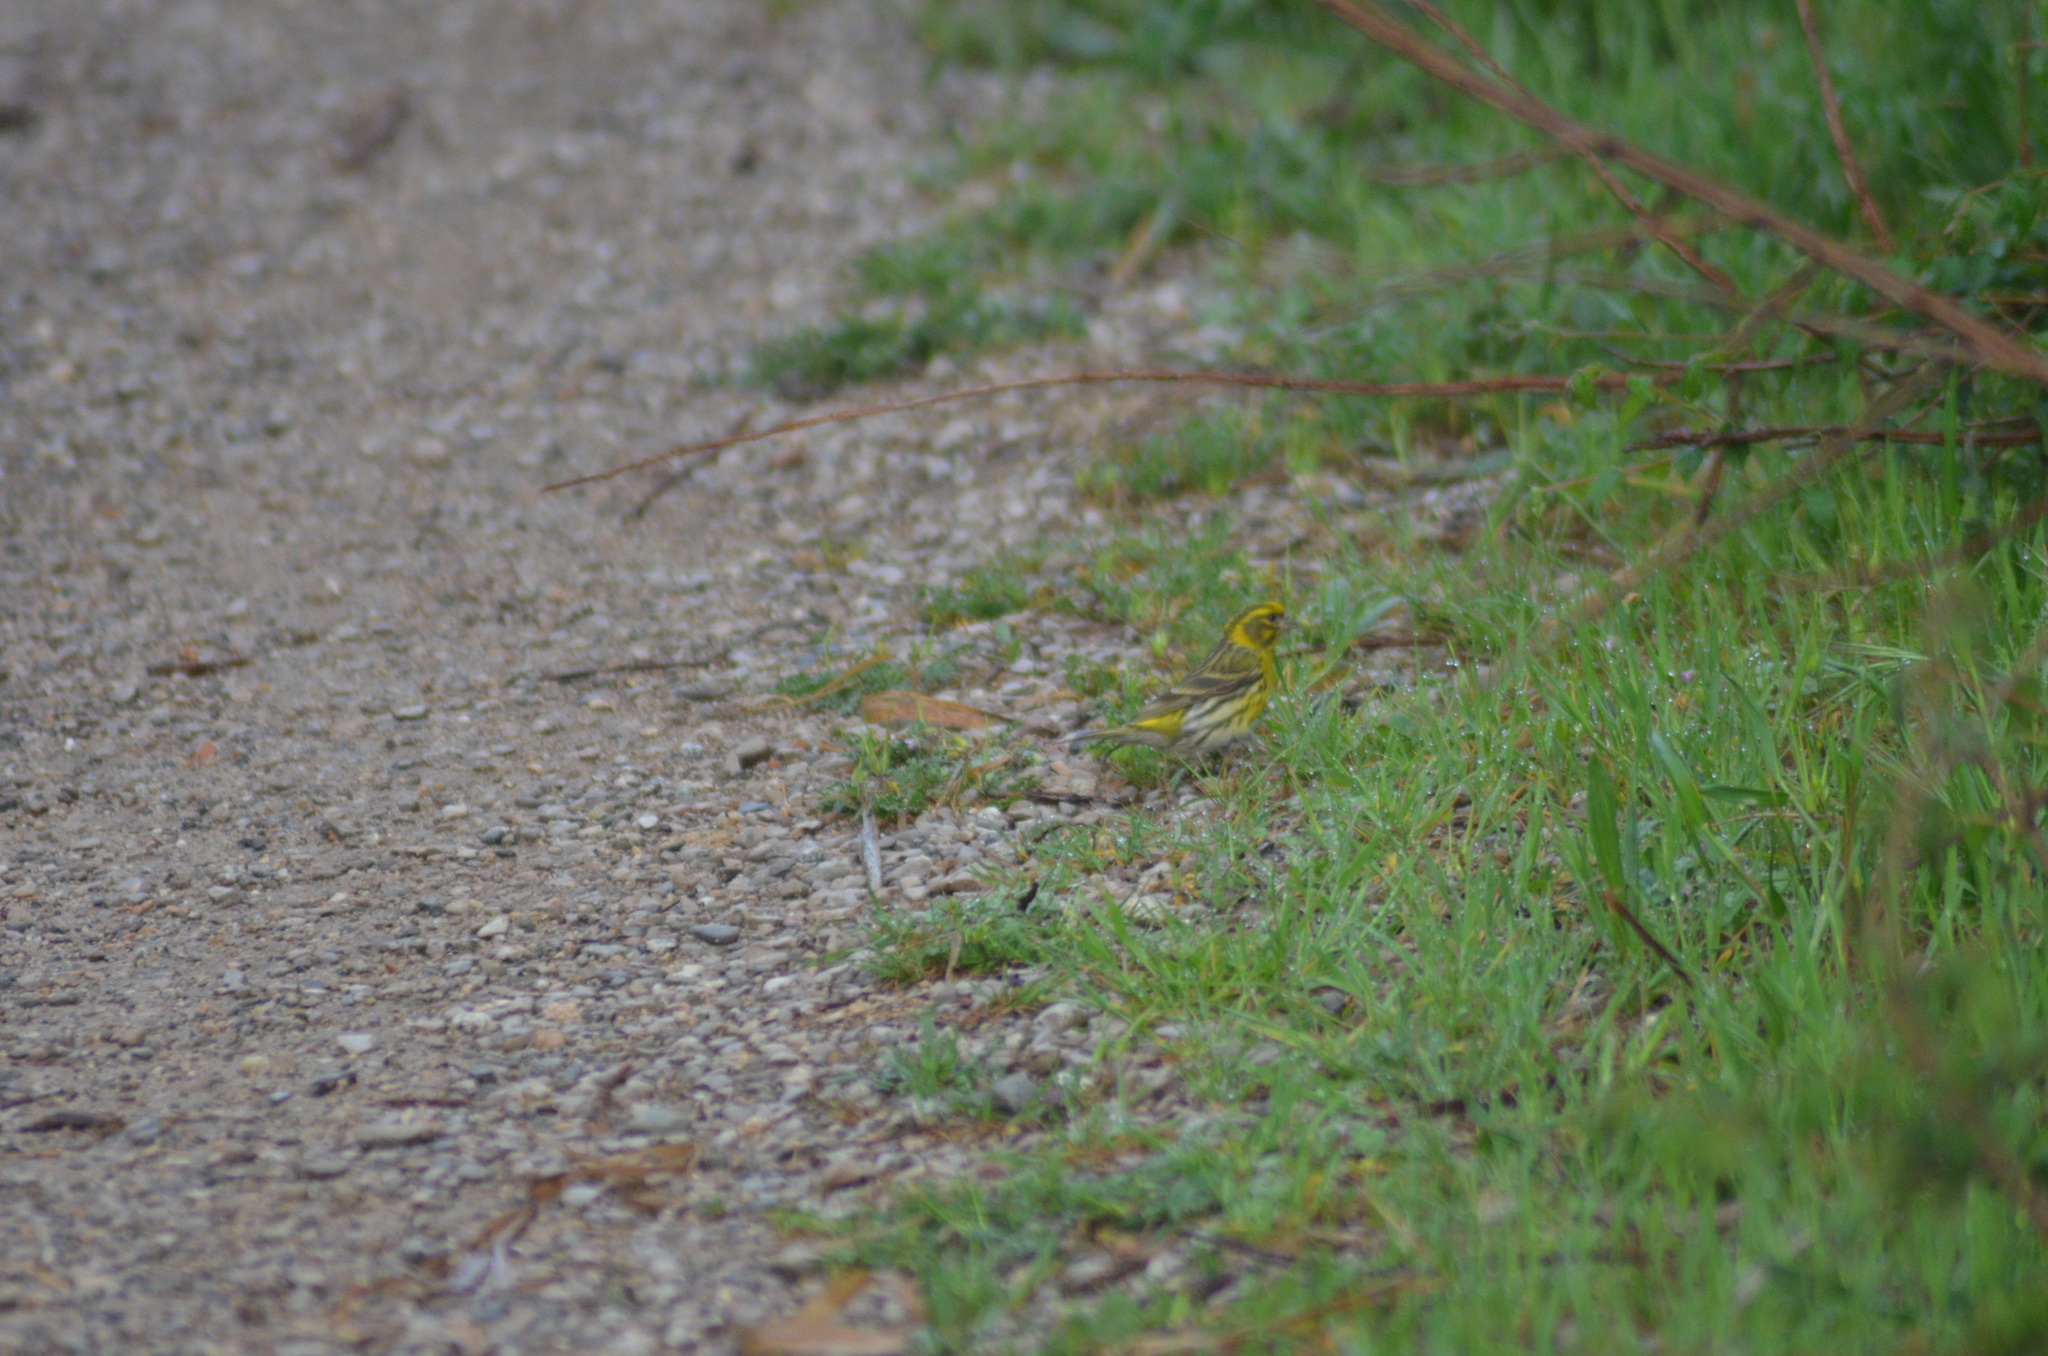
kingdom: Animalia
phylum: Chordata
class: Aves
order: Passeriformes
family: Fringillidae
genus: Serinus
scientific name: Serinus serinus
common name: European serin
